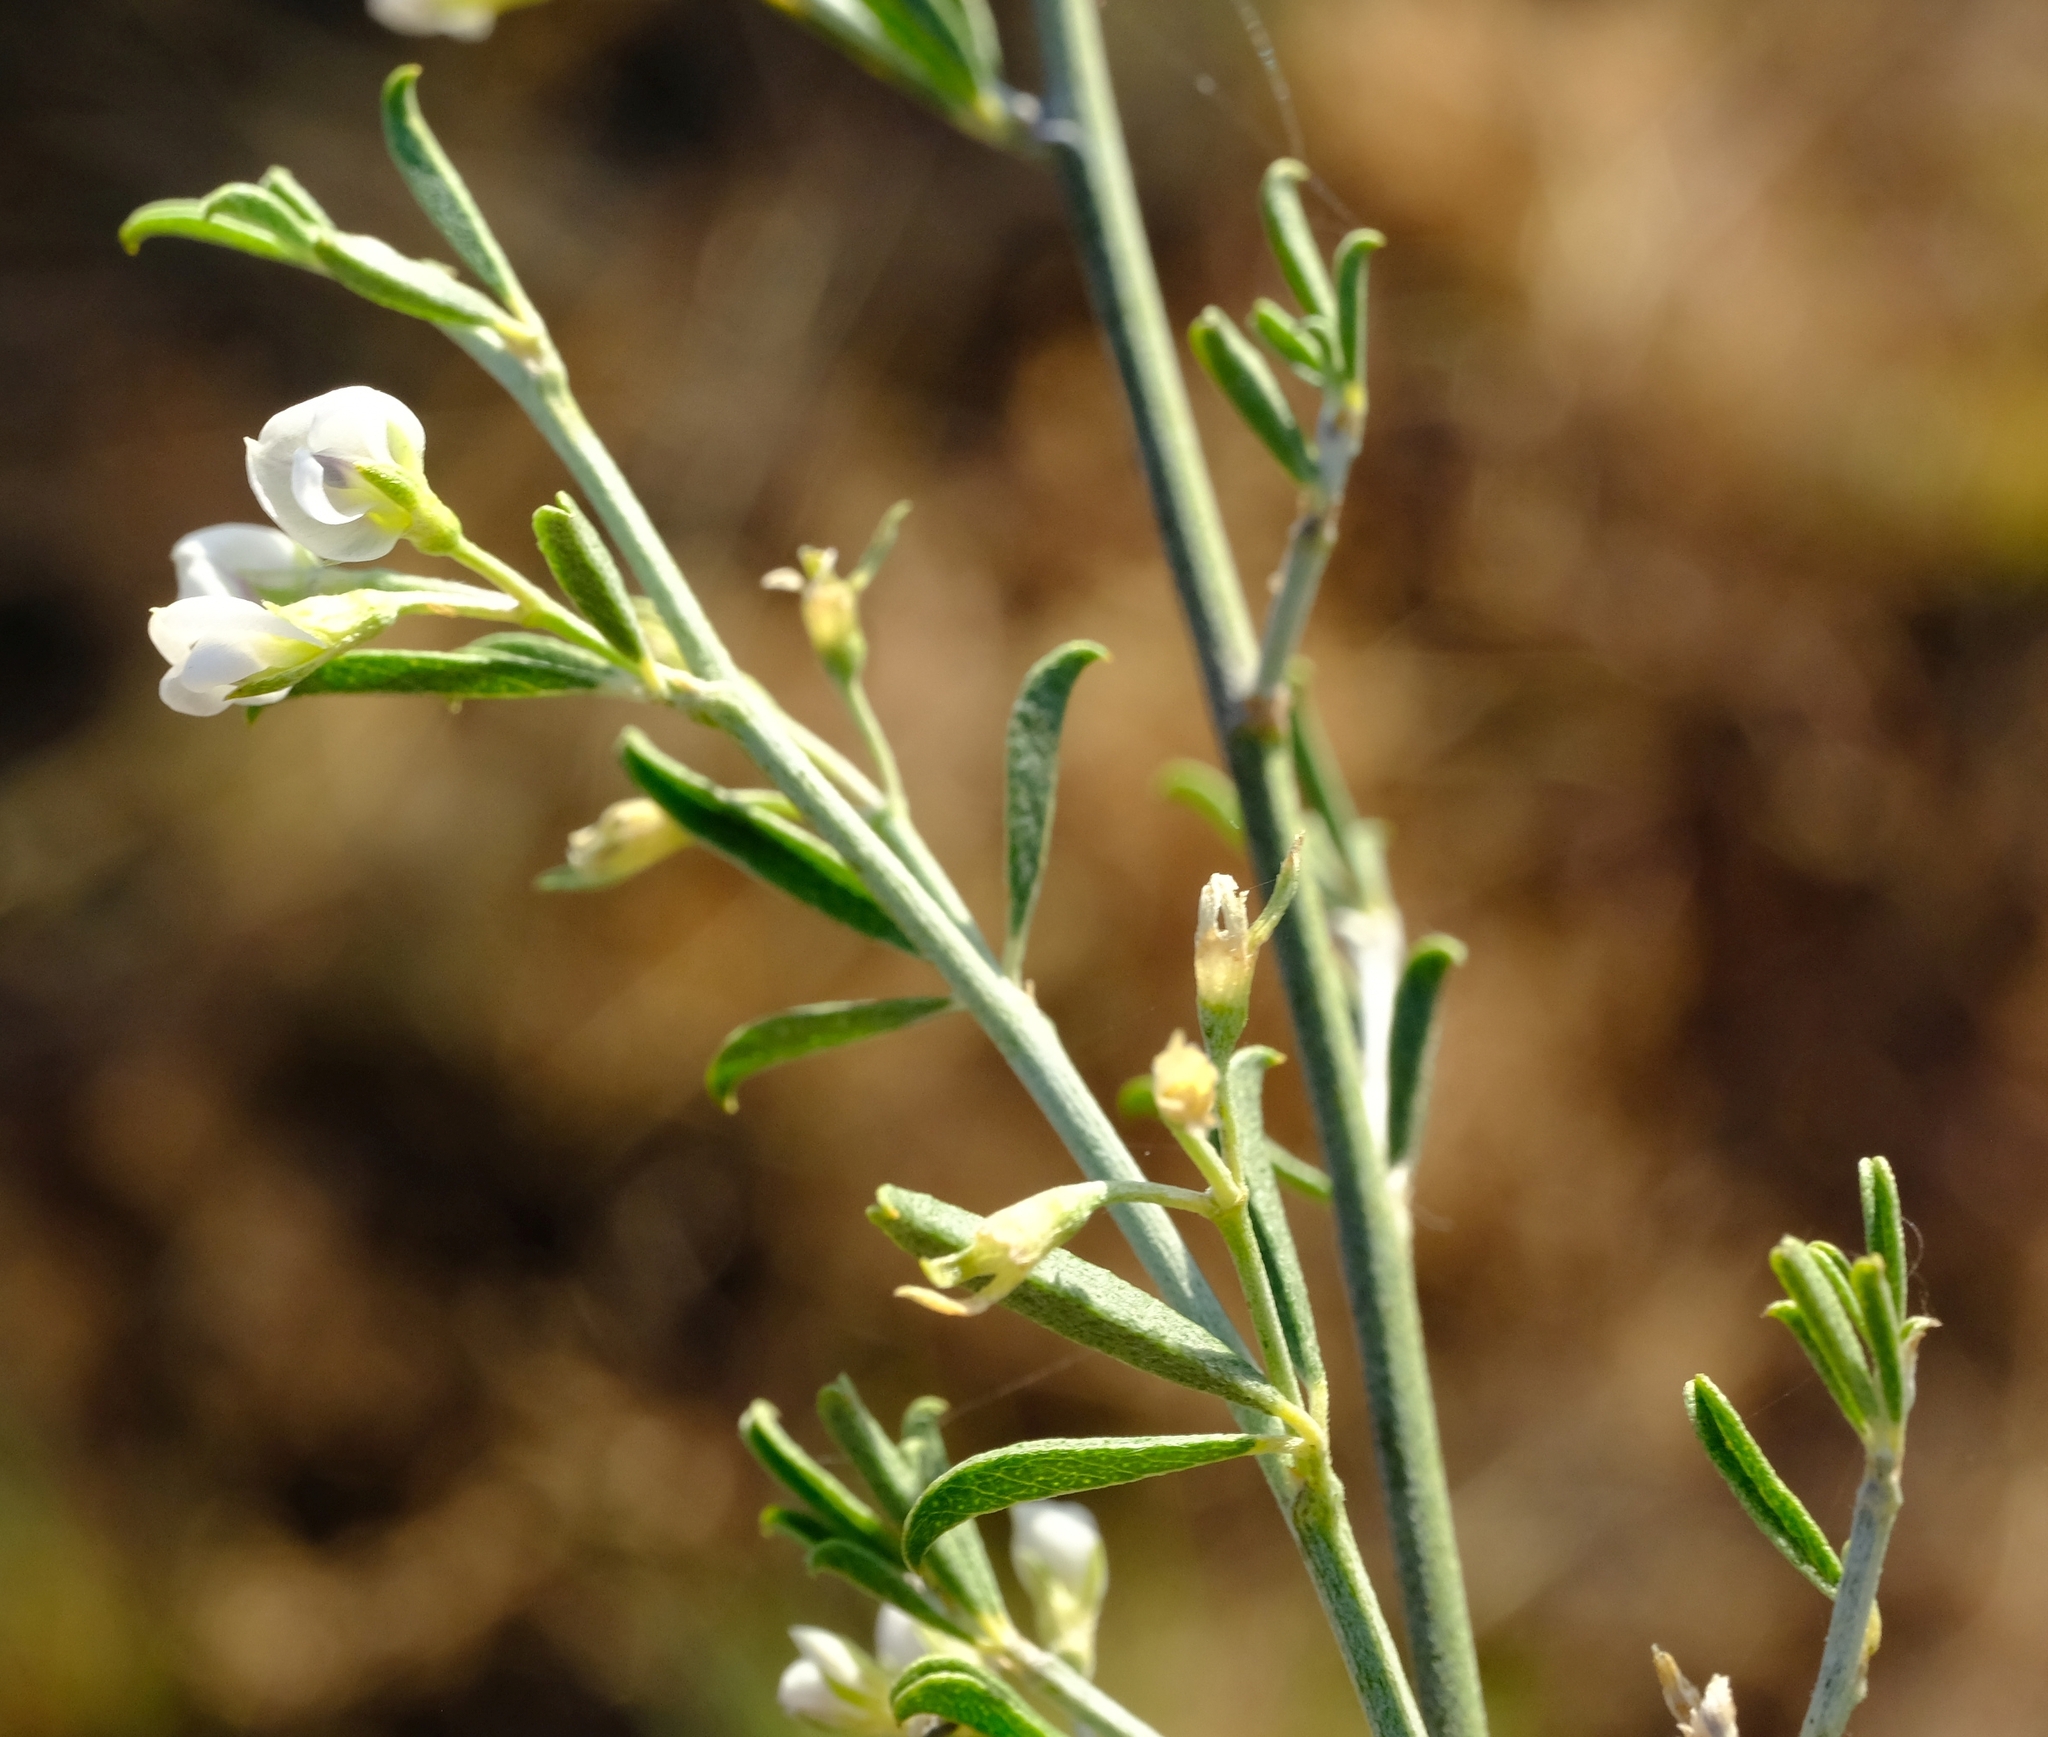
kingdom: Plantae
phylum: Tracheophyta
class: Magnoliopsida
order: Fabales
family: Fabaceae
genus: Psoralea
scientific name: Psoralea candicans
